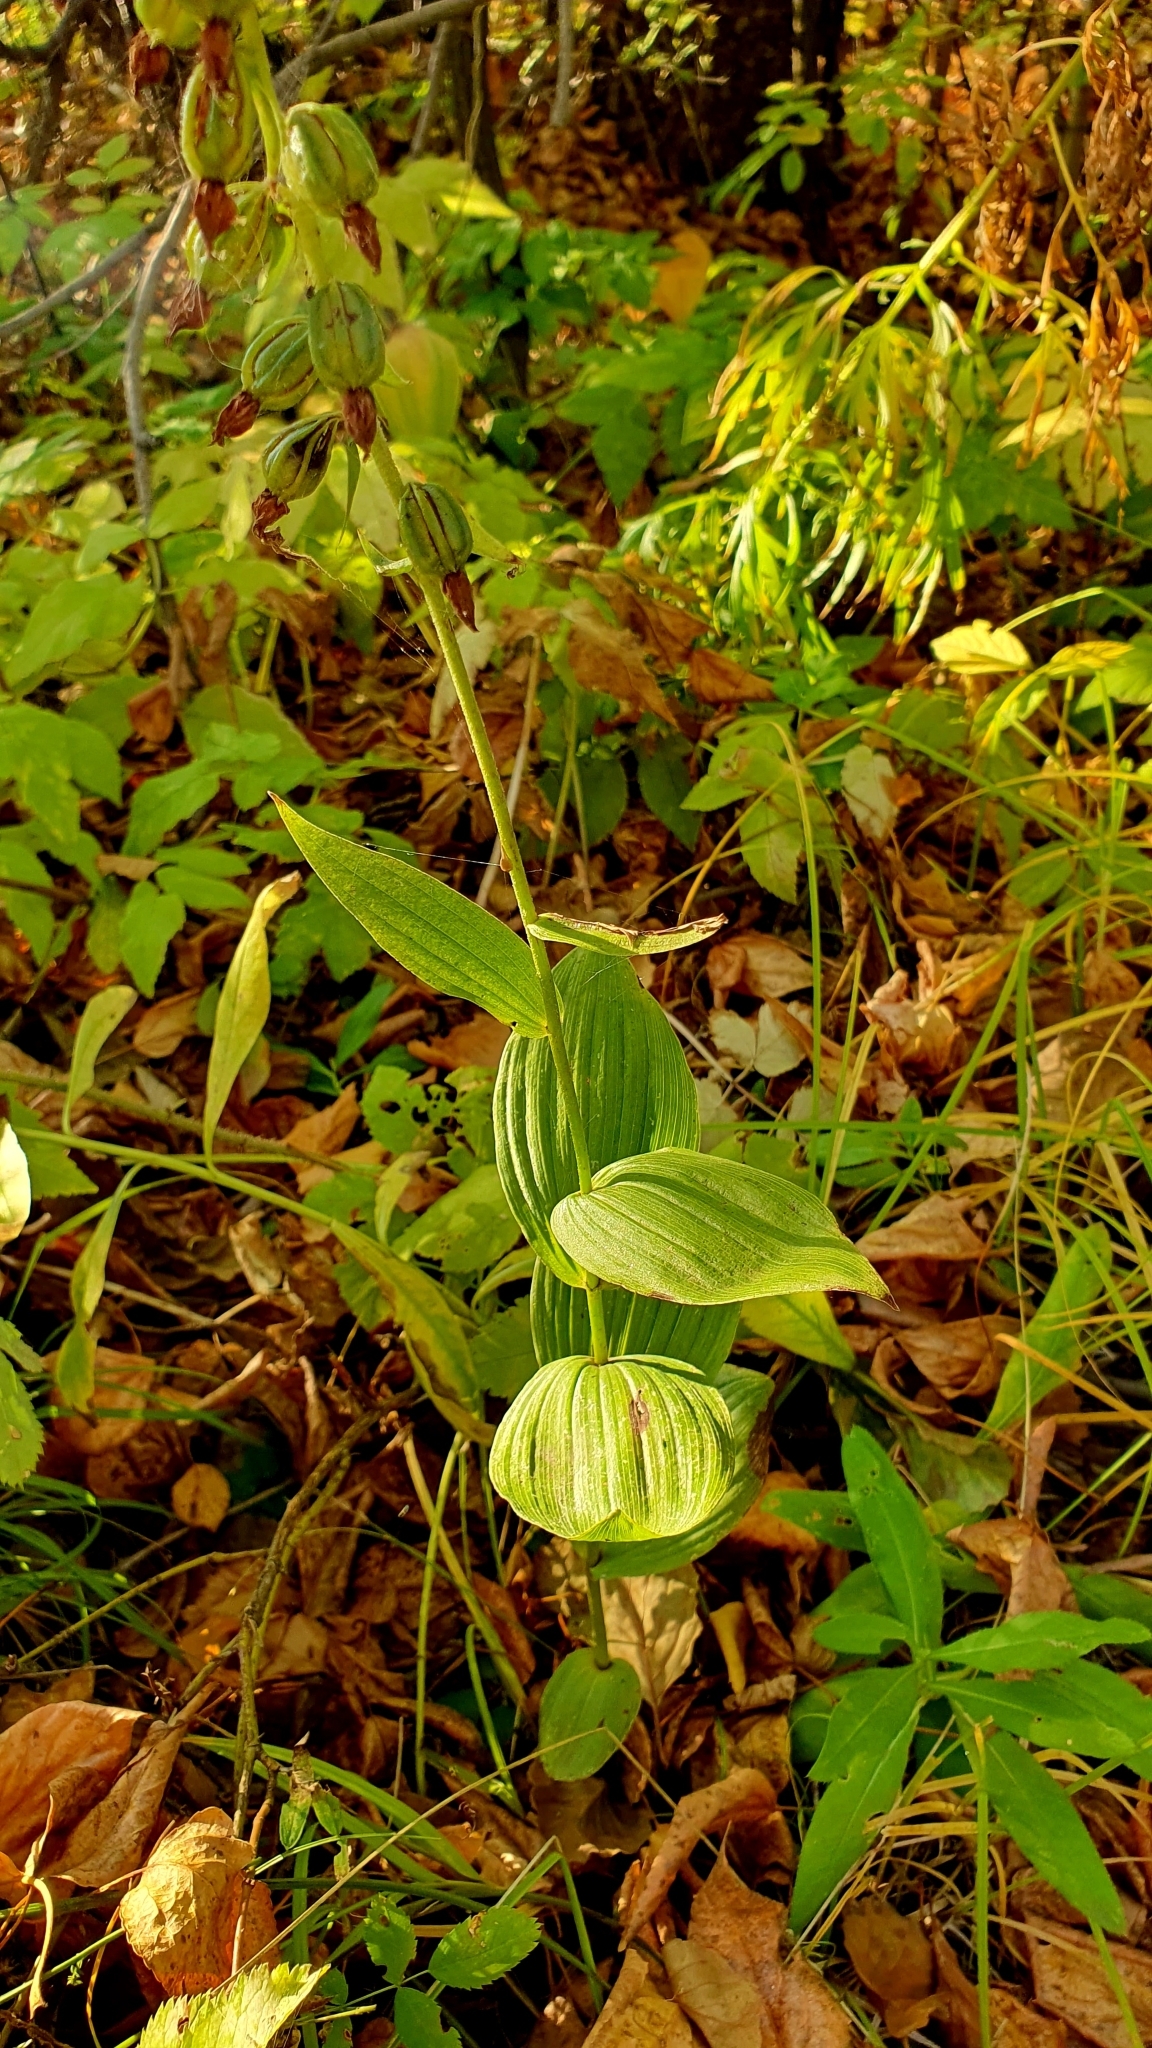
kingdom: Plantae
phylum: Tracheophyta
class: Liliopsida
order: Asparagales
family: Orchidaceae
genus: Epipactis
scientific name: Epipactis helleborine
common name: Broad-leaved helleborine
